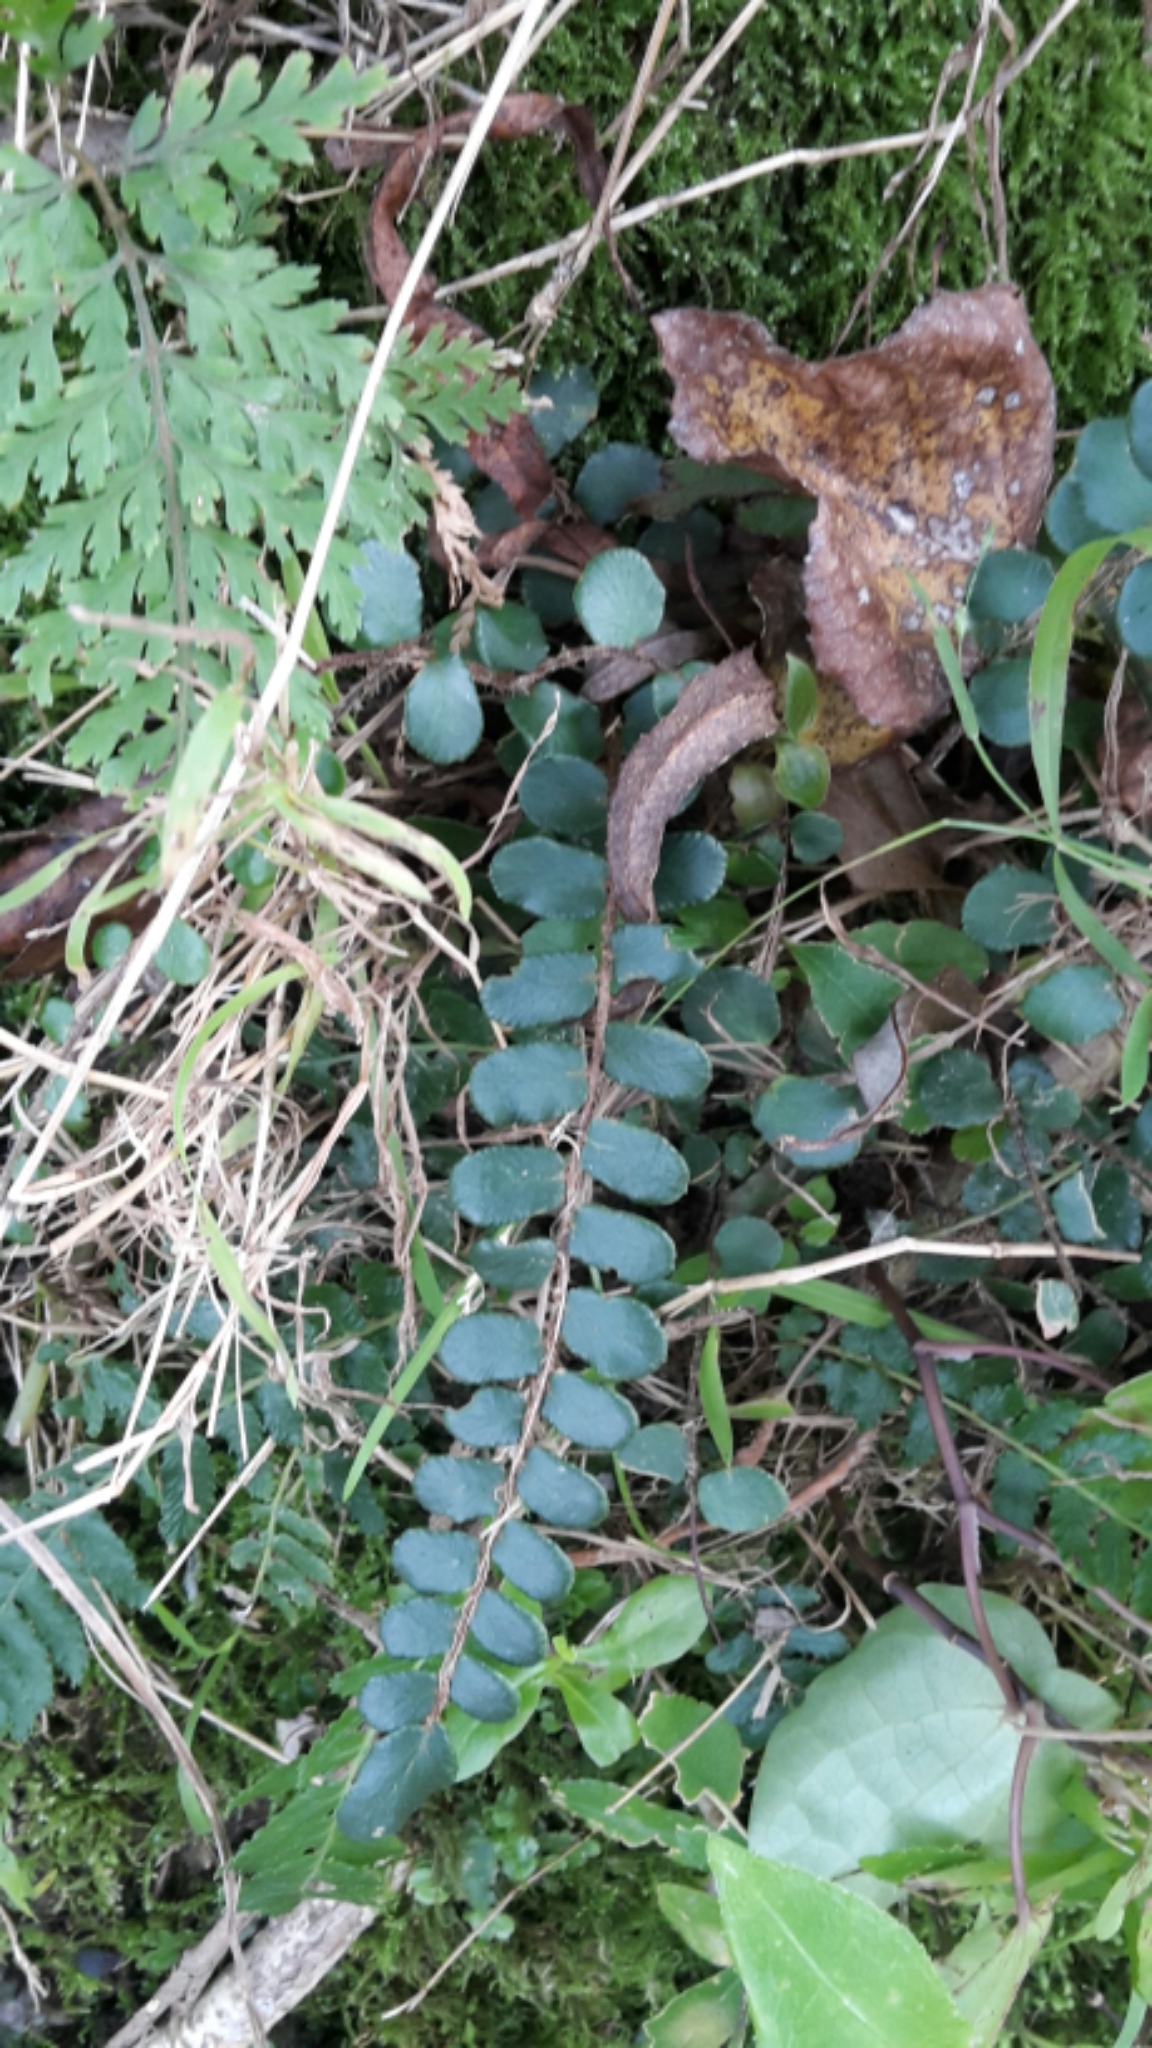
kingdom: Plantae
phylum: Tracheophyta
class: Polypodiopsida
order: Polypodiales
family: Pteridaceae
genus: Pellaea
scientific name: Pellaea rotundifolia
